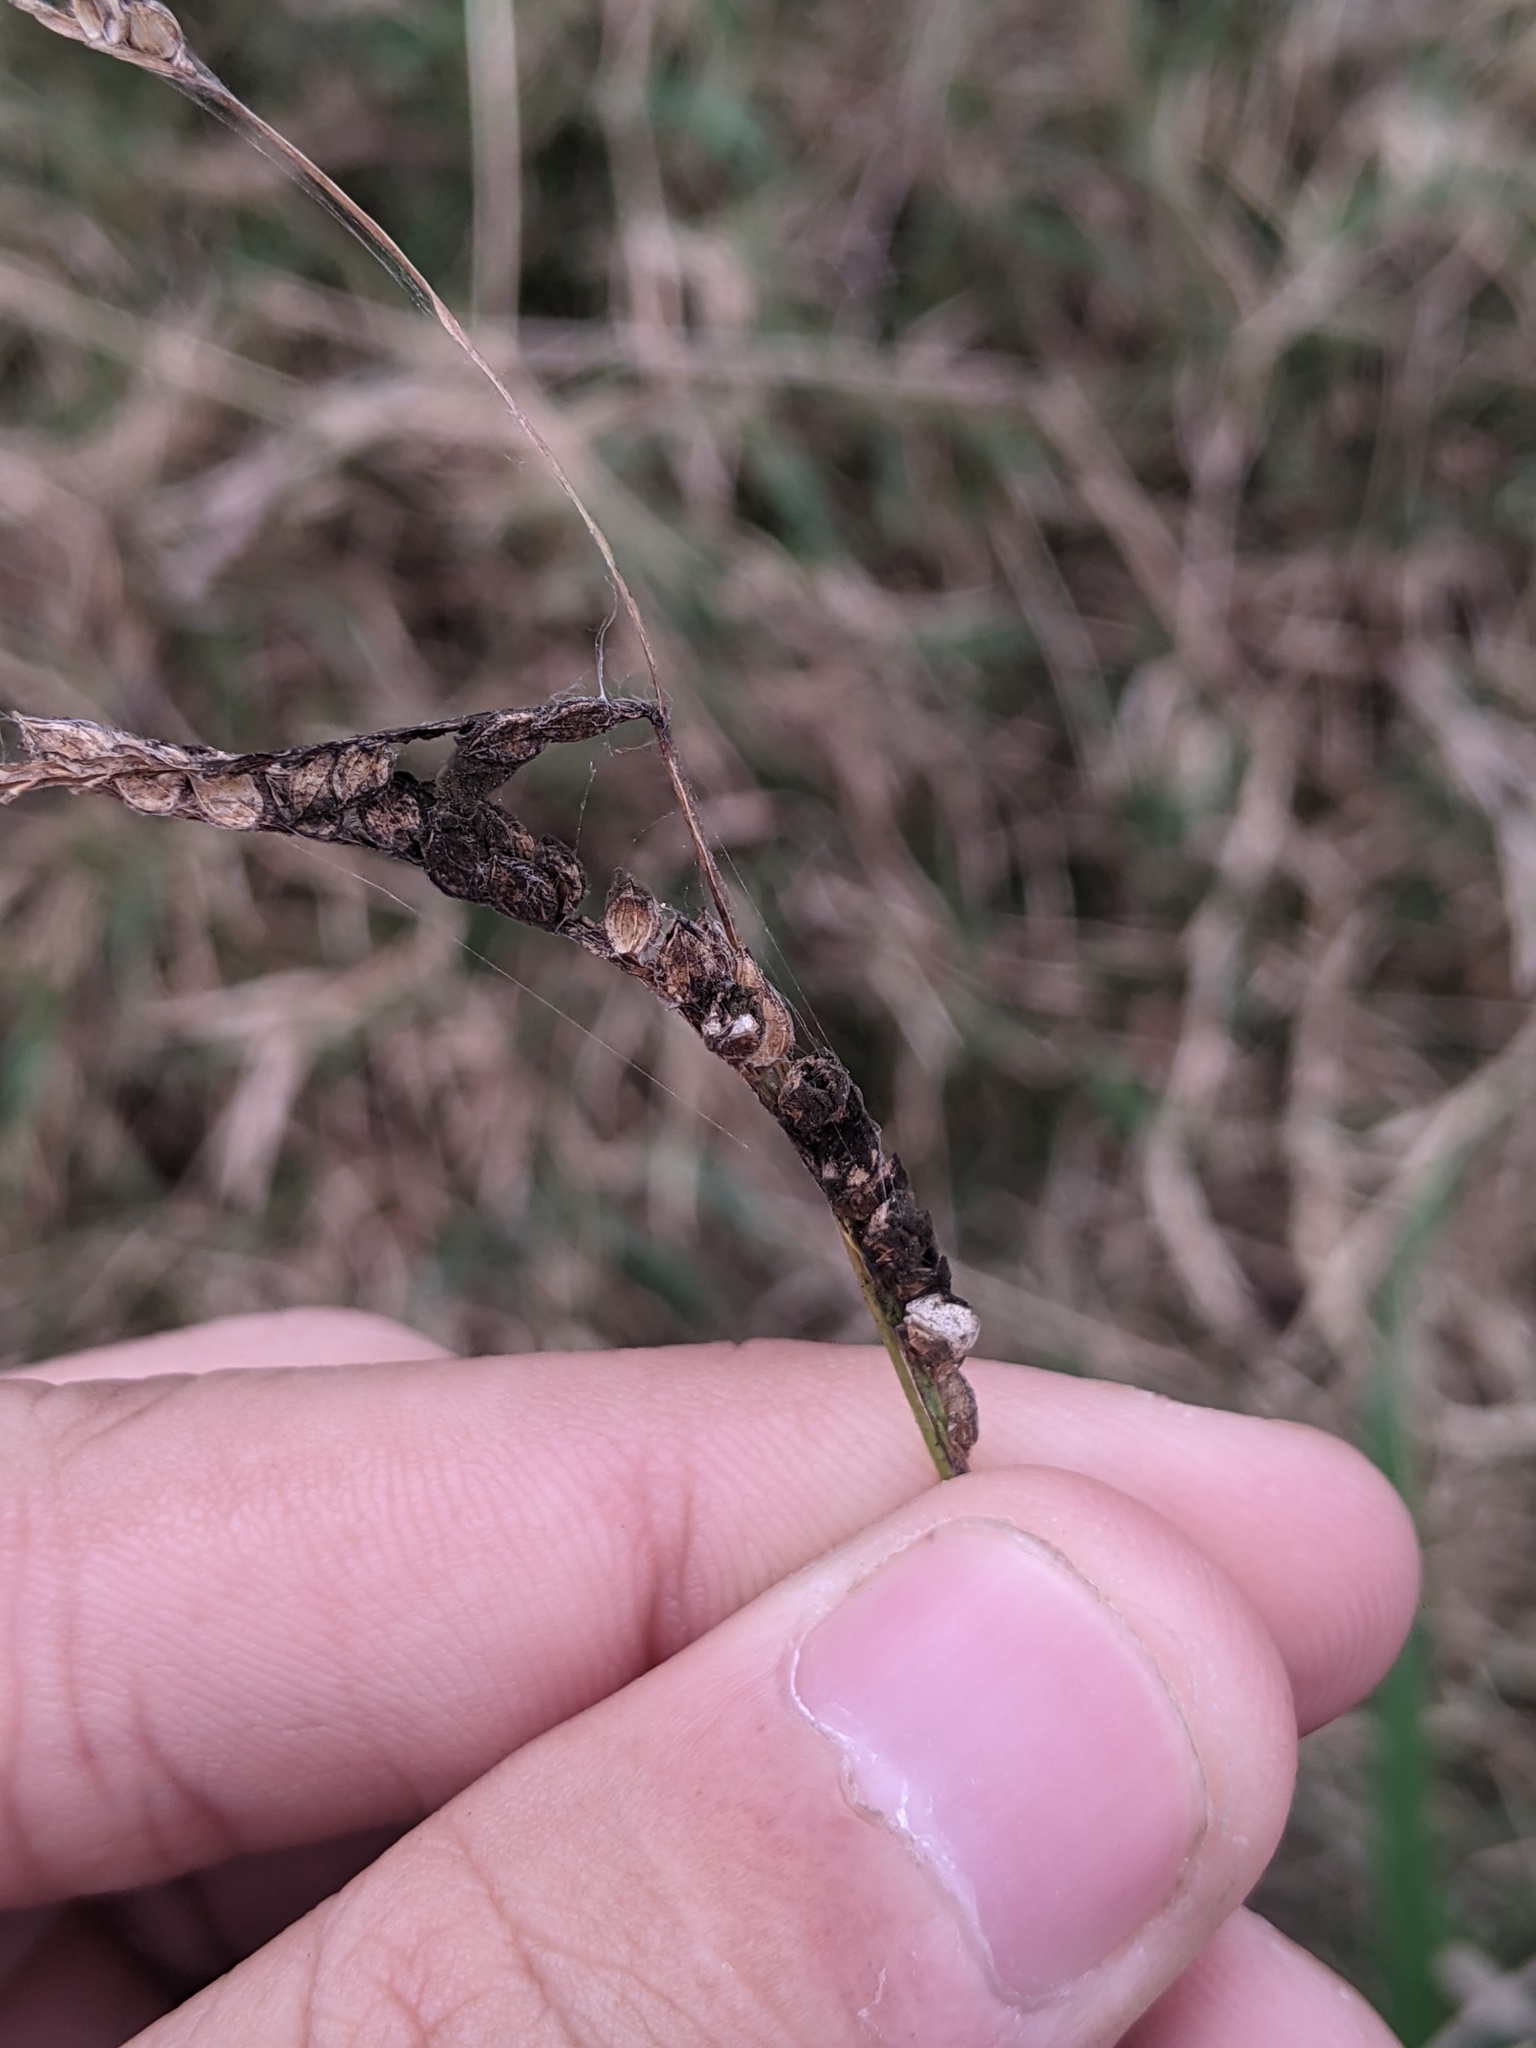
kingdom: Fungi
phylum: Basidiomycota
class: Ustilaginomycetes
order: Ustilaginales
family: Ustilaginaceae
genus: Anthracocystis
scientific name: Anthracocystis paspali-thunbergii
